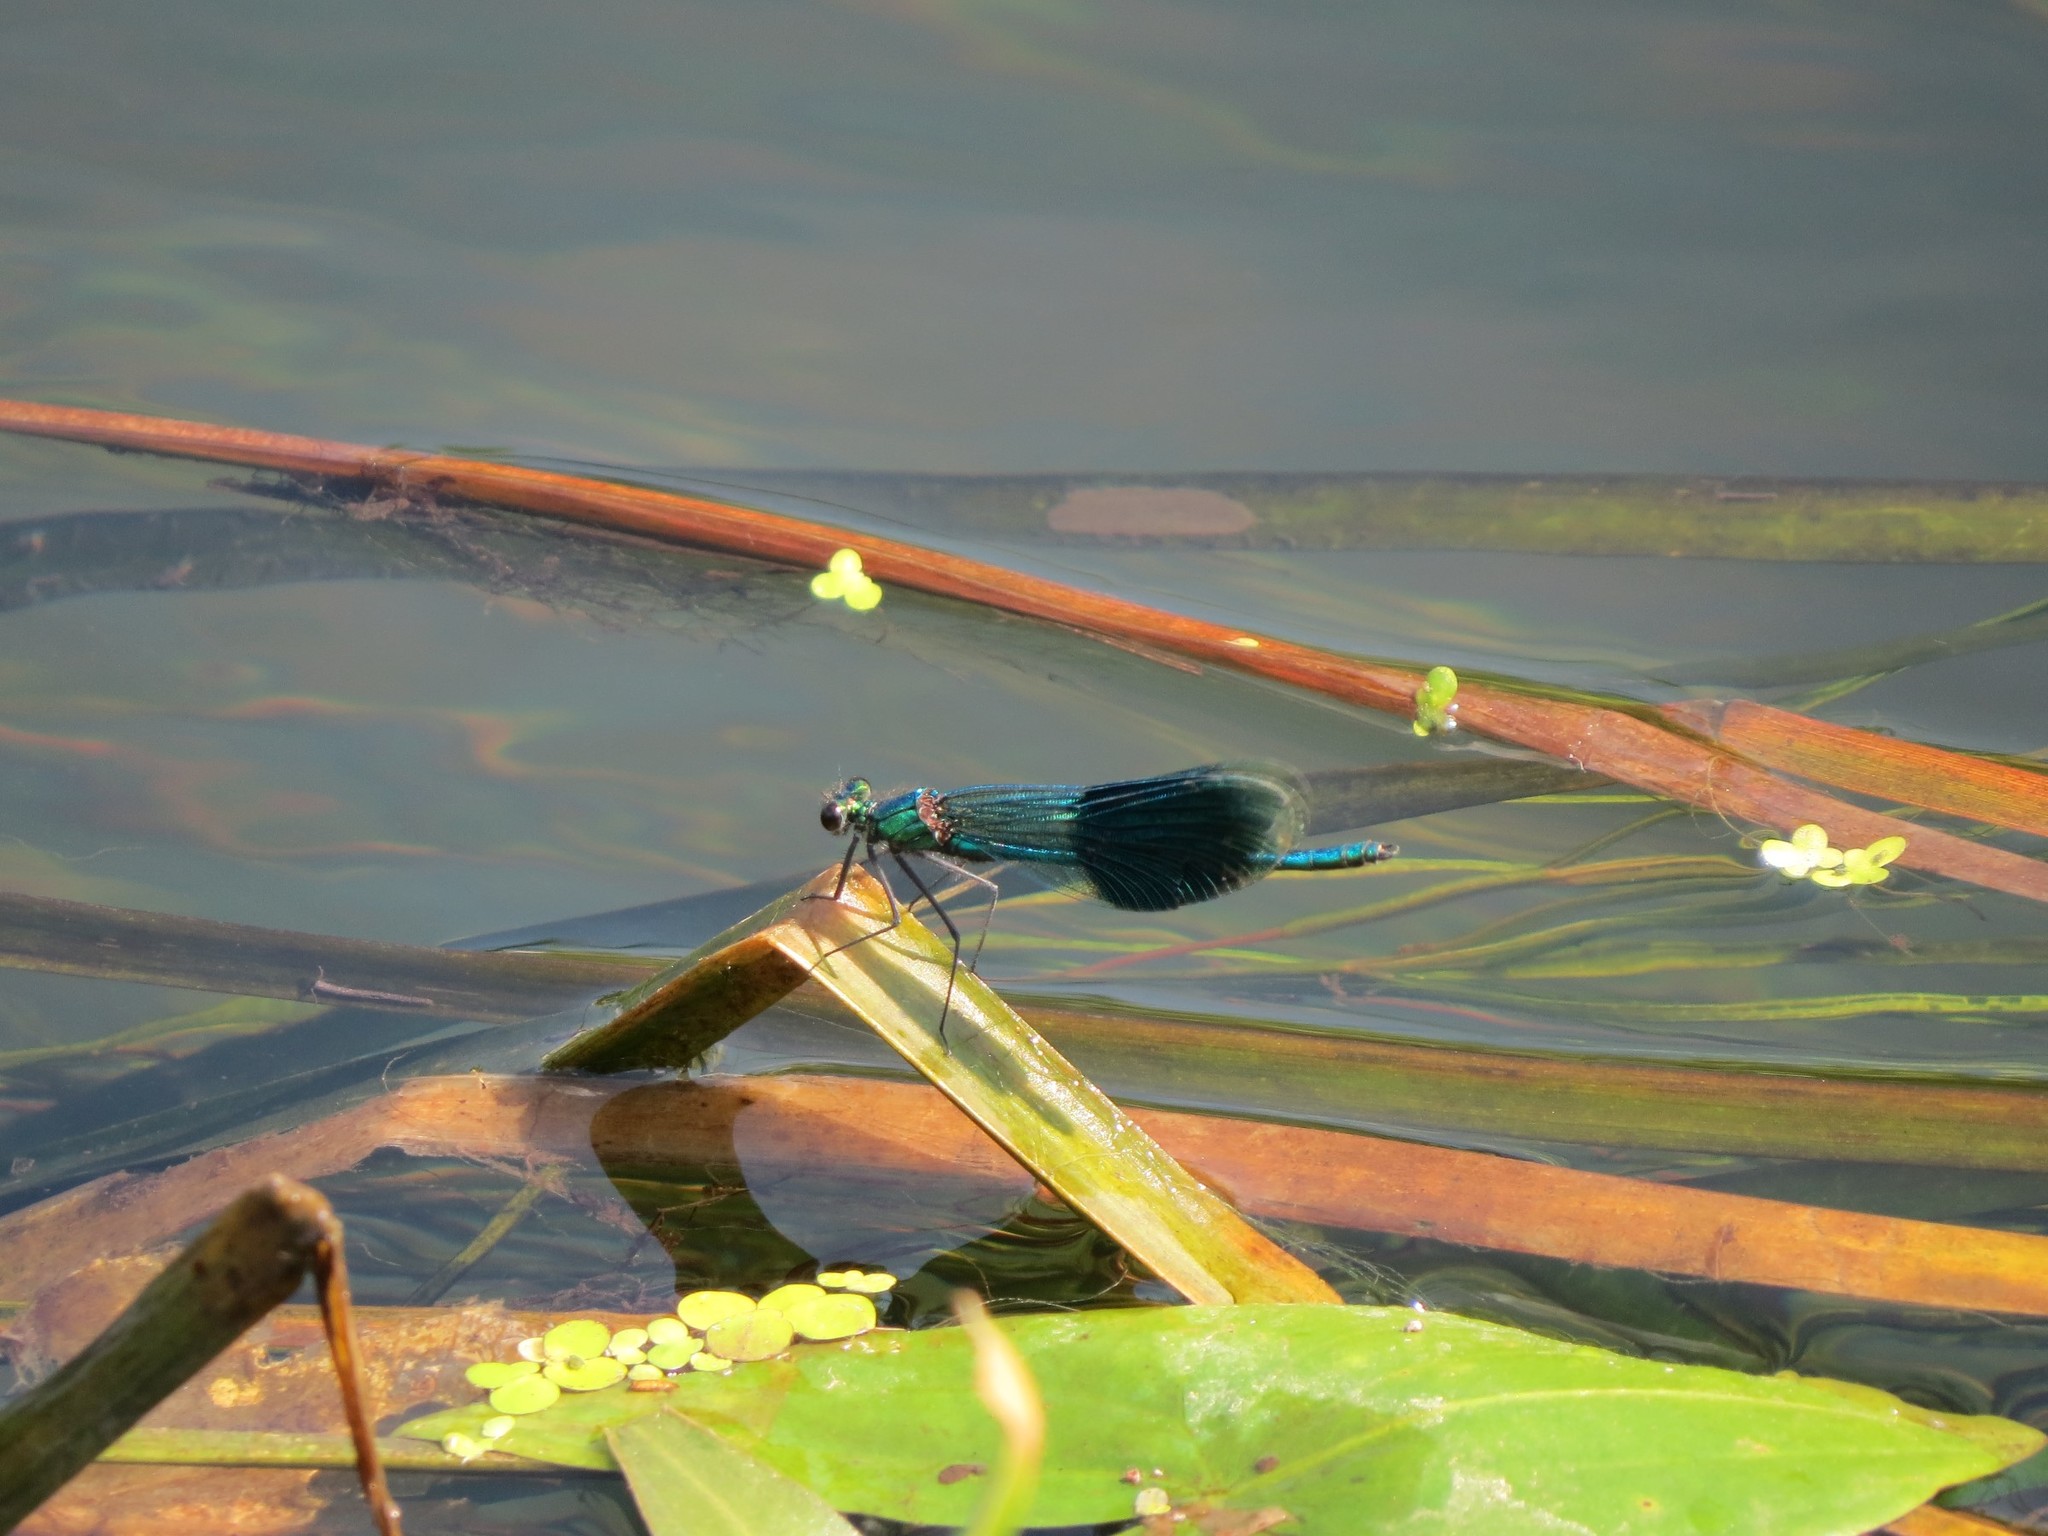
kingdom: Animalia
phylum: Arthropoda
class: Insecta
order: Odonata
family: Calopterygidae
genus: Calopteryx
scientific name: Calopteryx splendens
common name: Banded demoiselle
